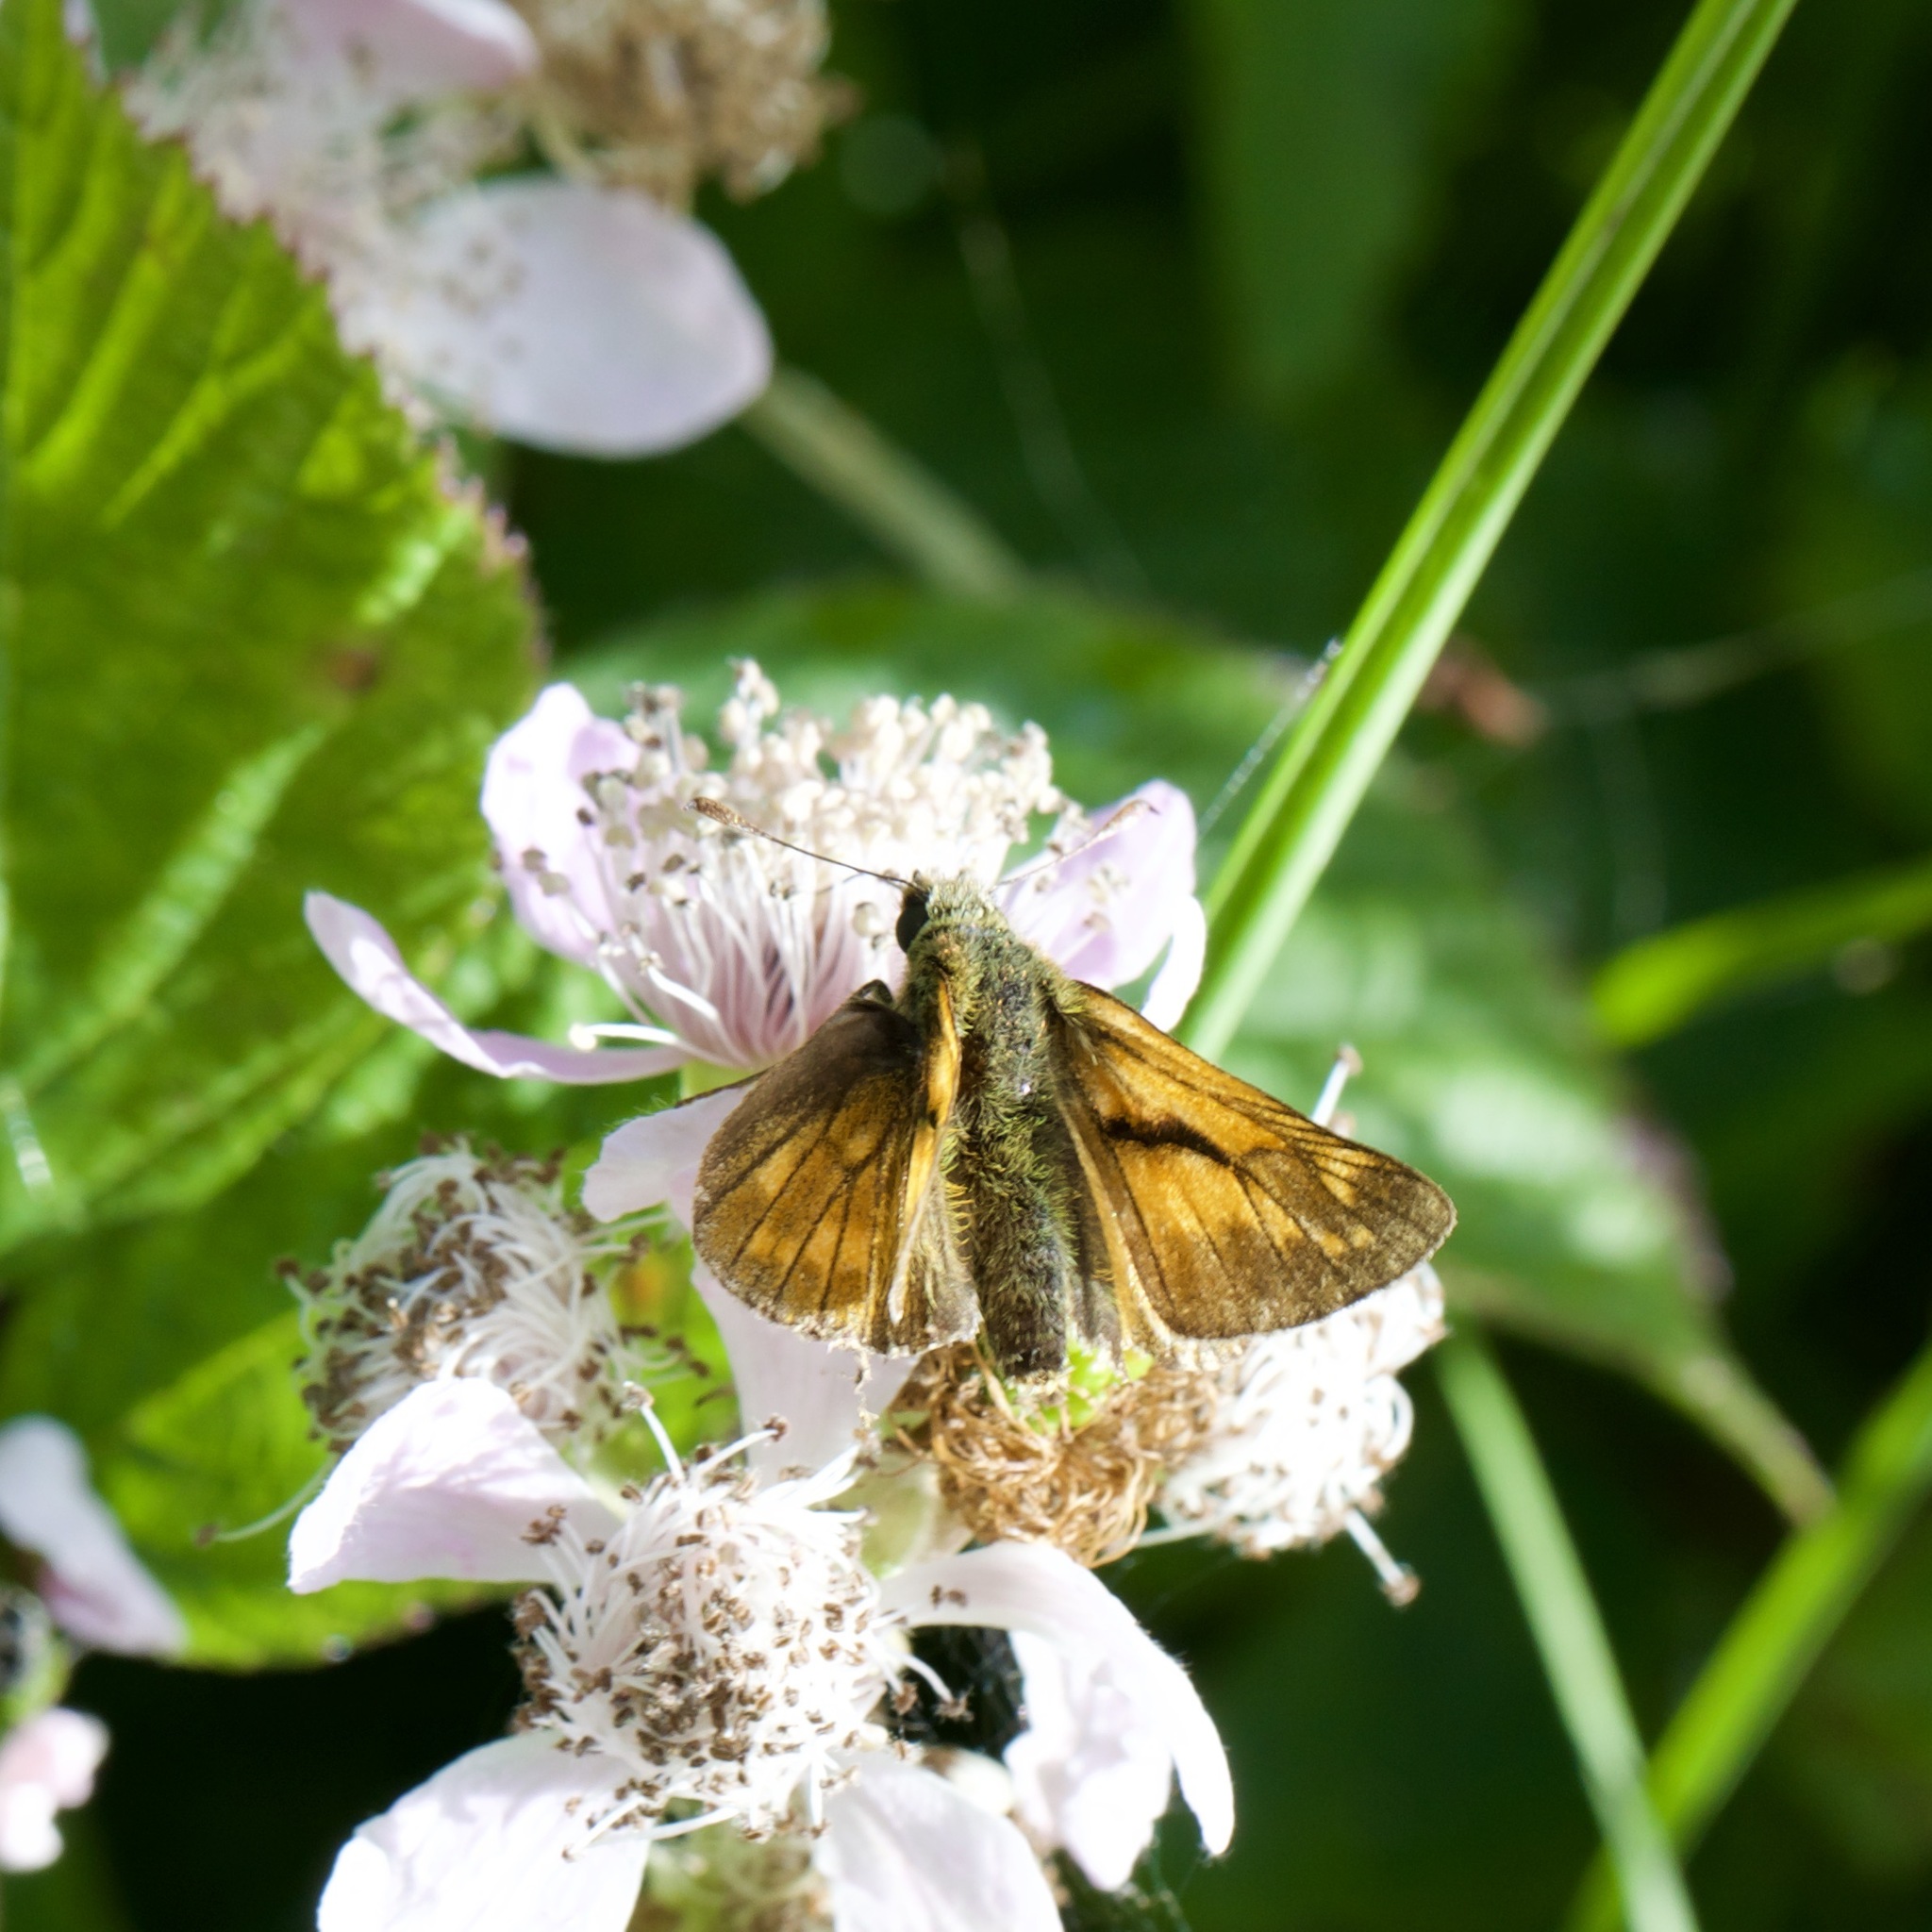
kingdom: Animalia
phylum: Arthropoda
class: Insecta
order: Lepidoptera
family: Hesperiidae
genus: Ochlodes
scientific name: Ochlodes venata
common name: Large skipper
